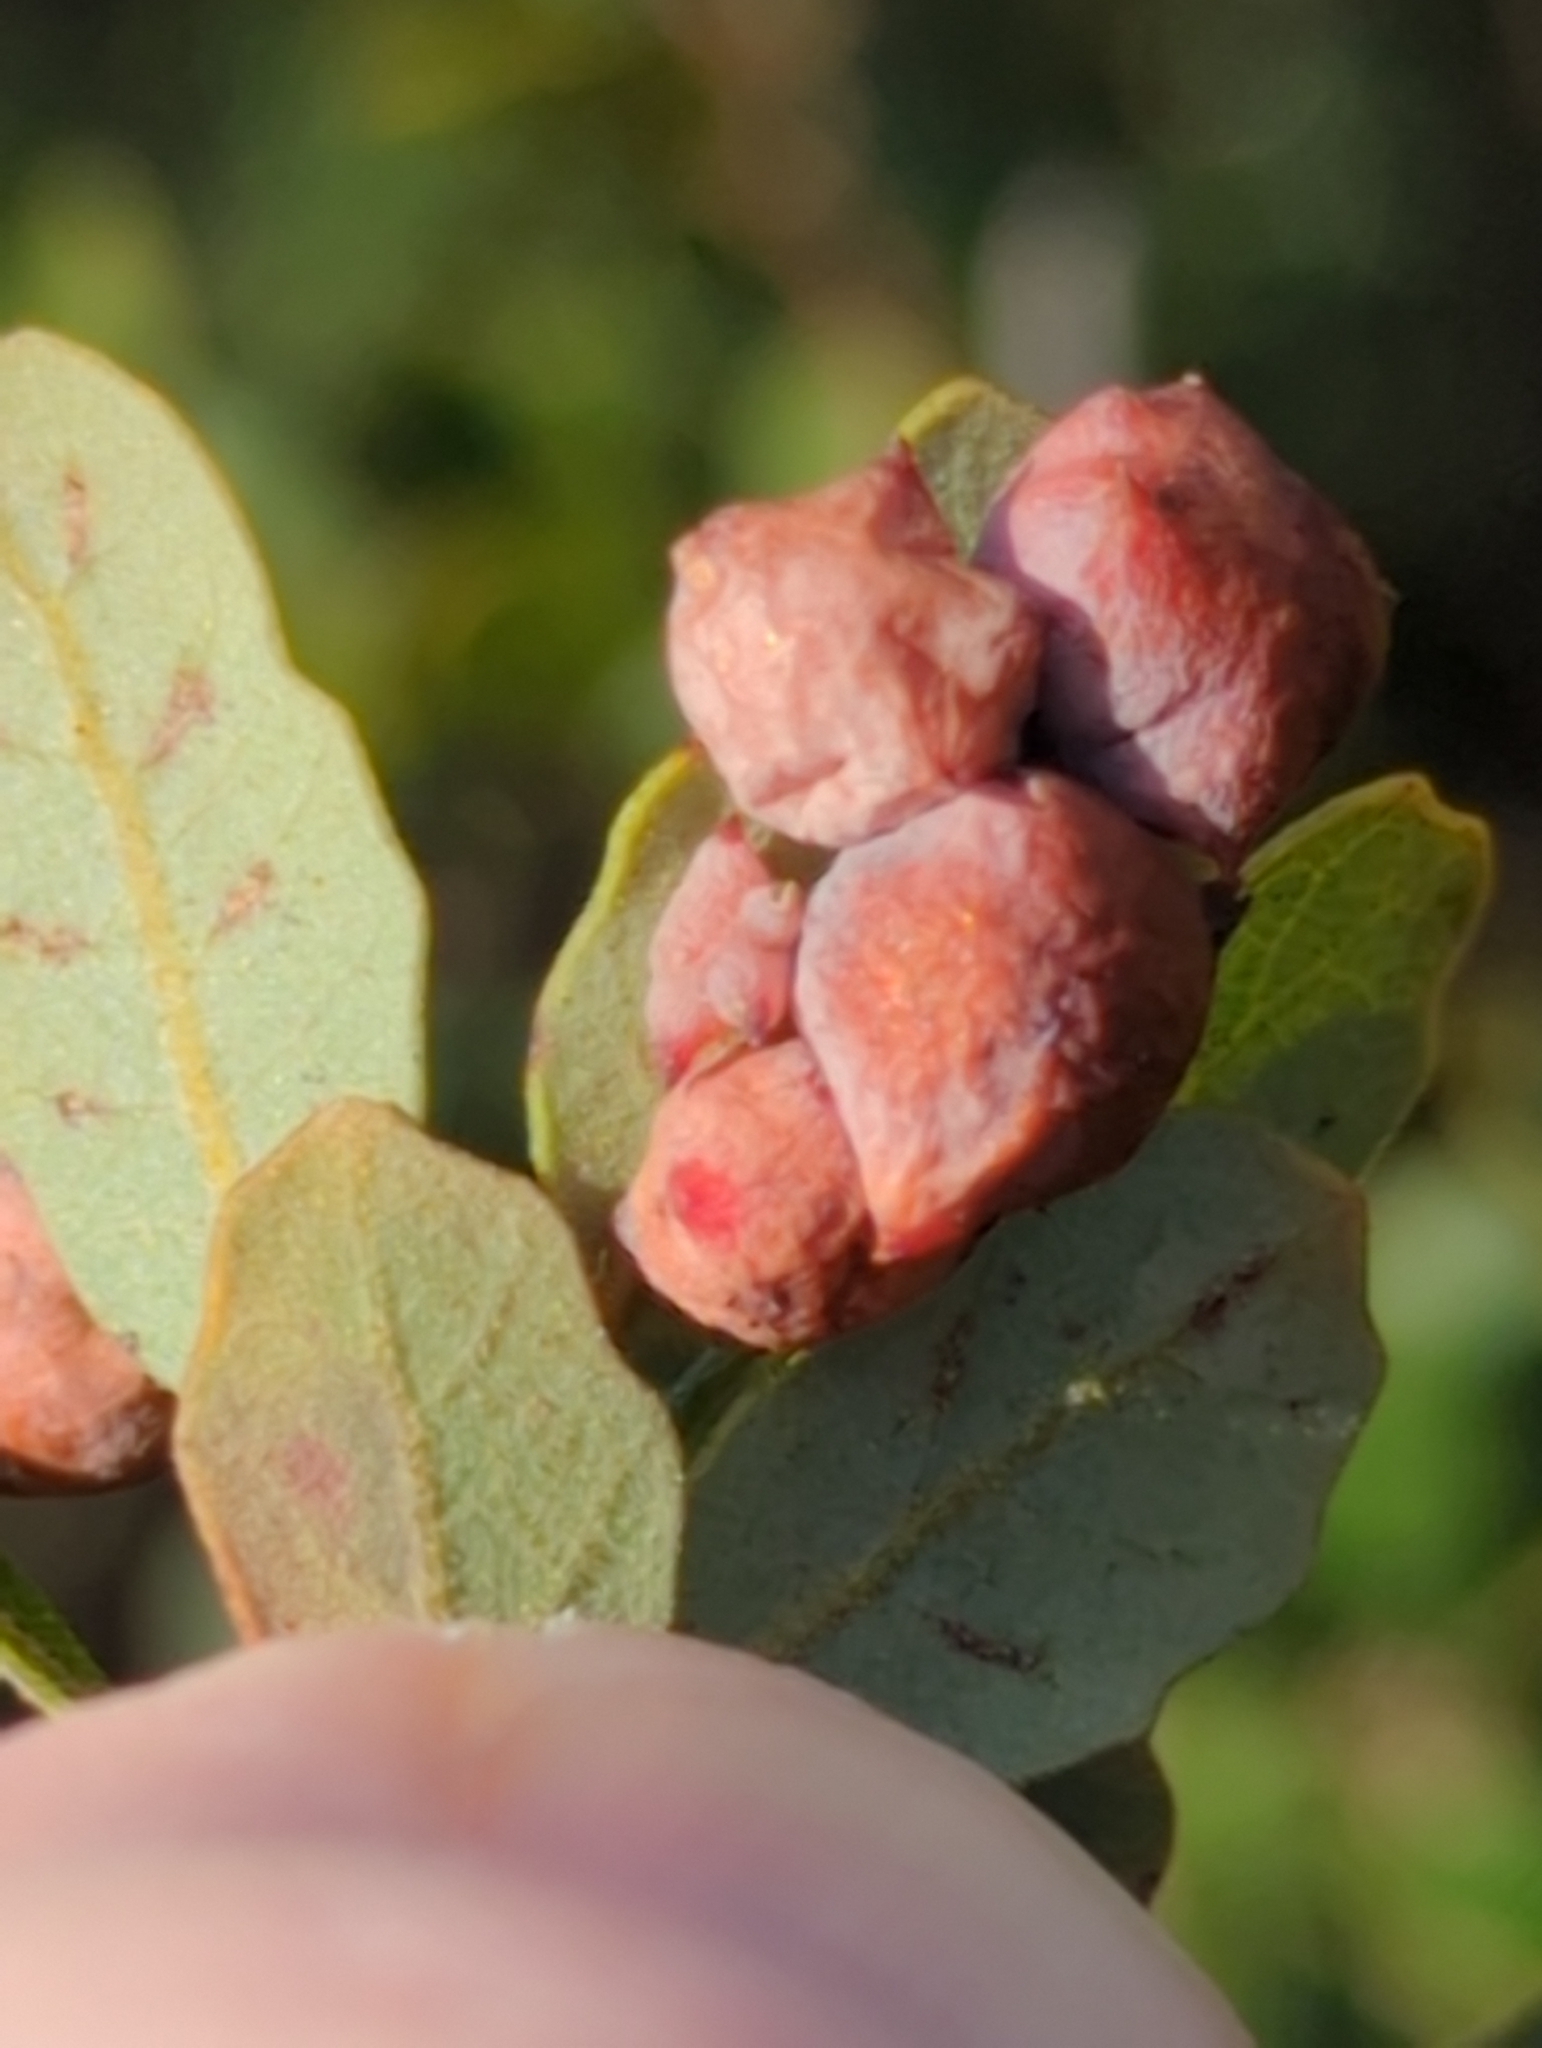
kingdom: Animalia
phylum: Arthropoda
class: Insecta
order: Hymenoptera
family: Cynipidae
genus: Cynips
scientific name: Cynips douglasi
